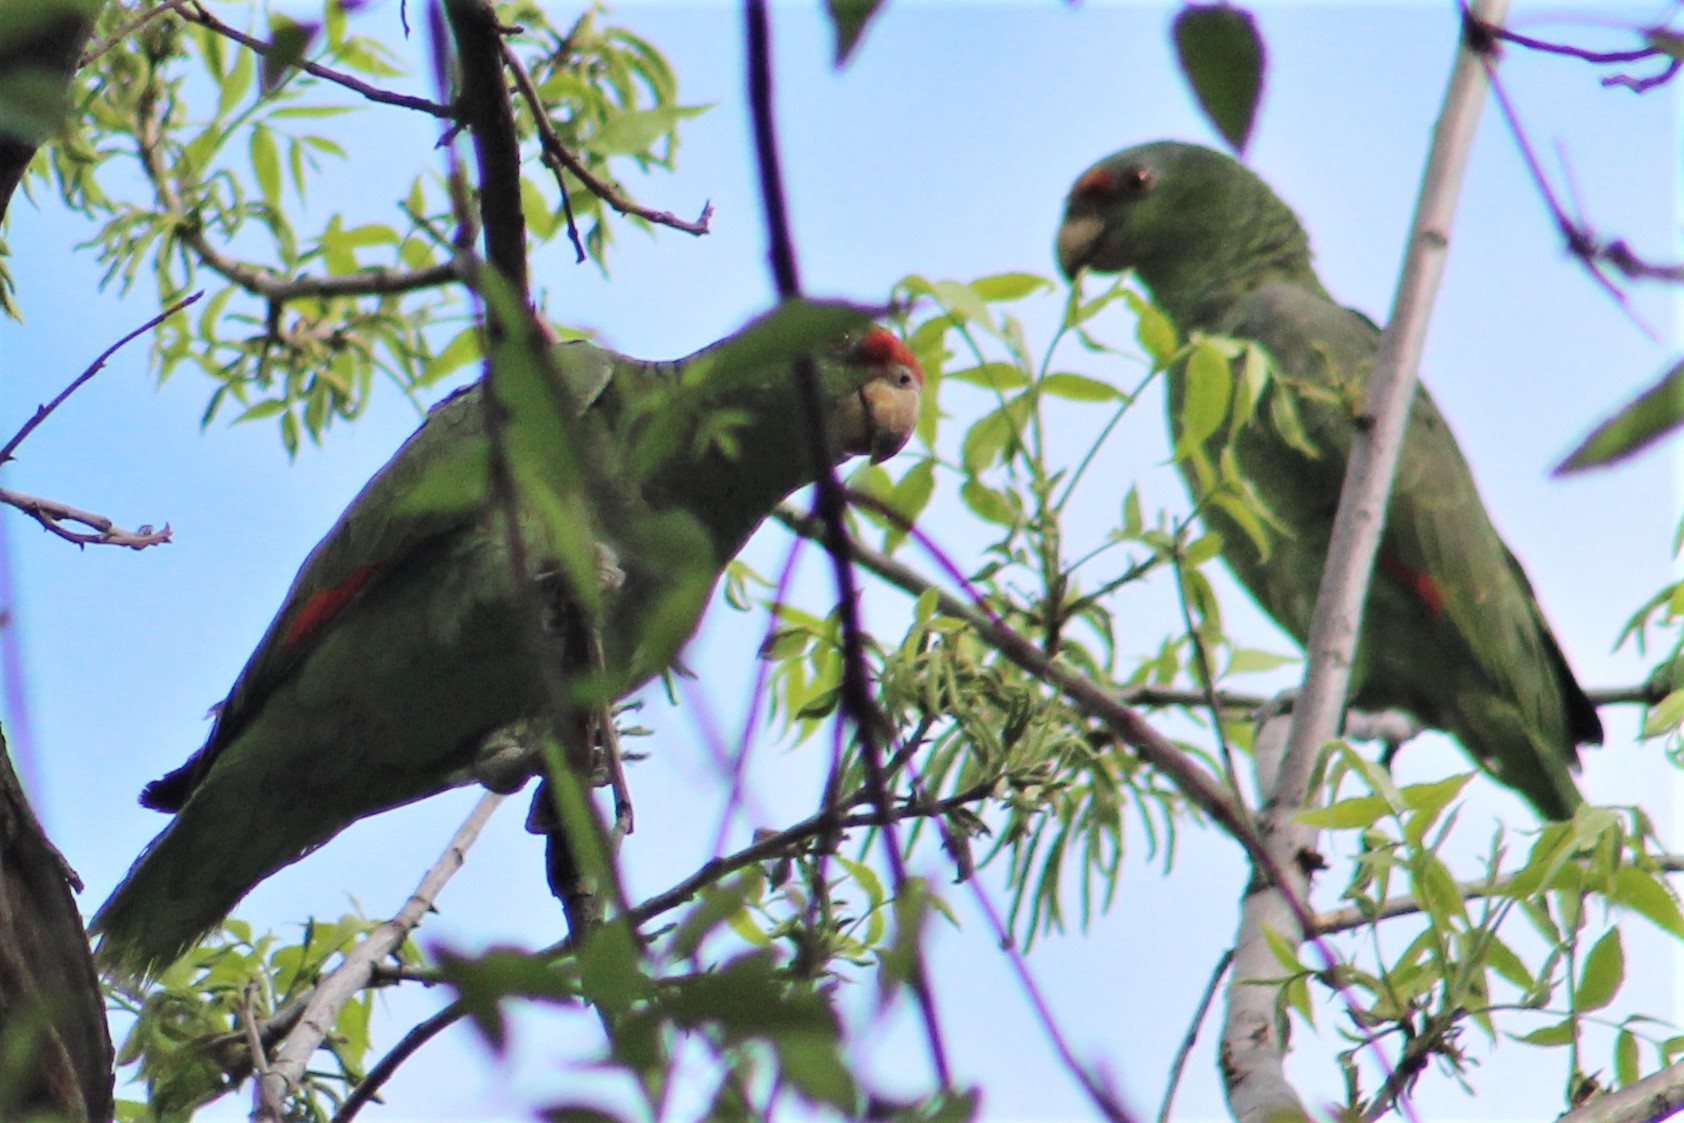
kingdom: Animalia
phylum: Chordata
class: Aves
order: Psittaciformes
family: Psittacidae
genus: Amazona
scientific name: Amazona finschi
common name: Lilac-crowned amazon
